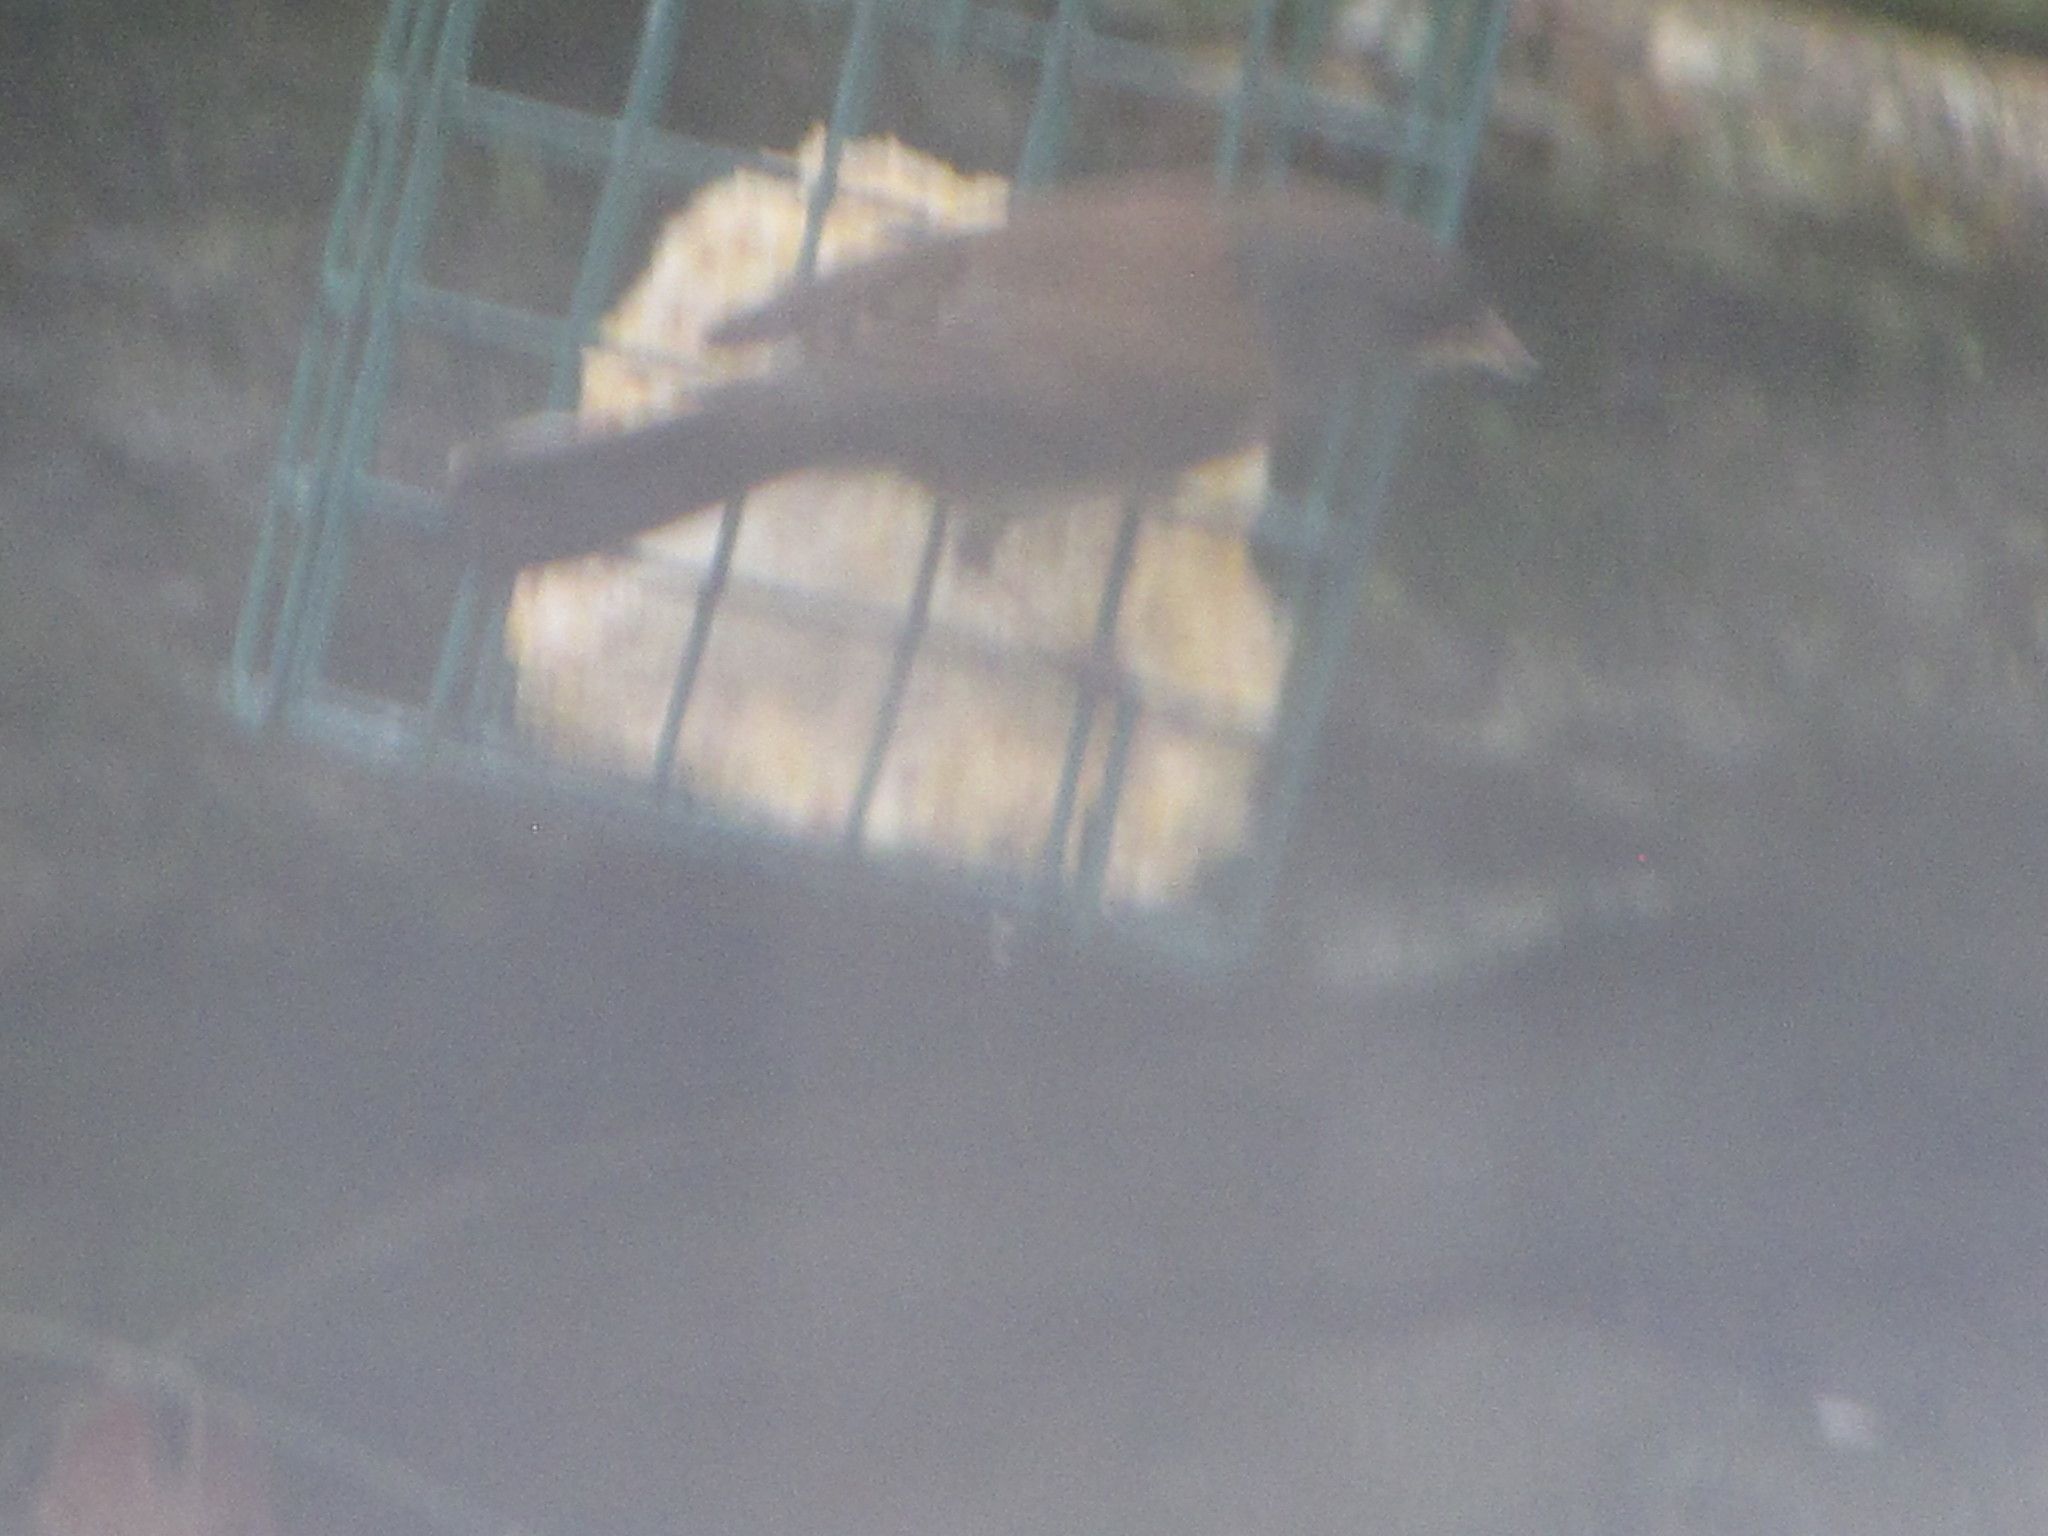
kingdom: Animalia
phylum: Chordata
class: Aves
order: Passeriformes
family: Passerellidae
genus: Junco
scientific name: Junco hyemalis
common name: Dark-eyed junco
